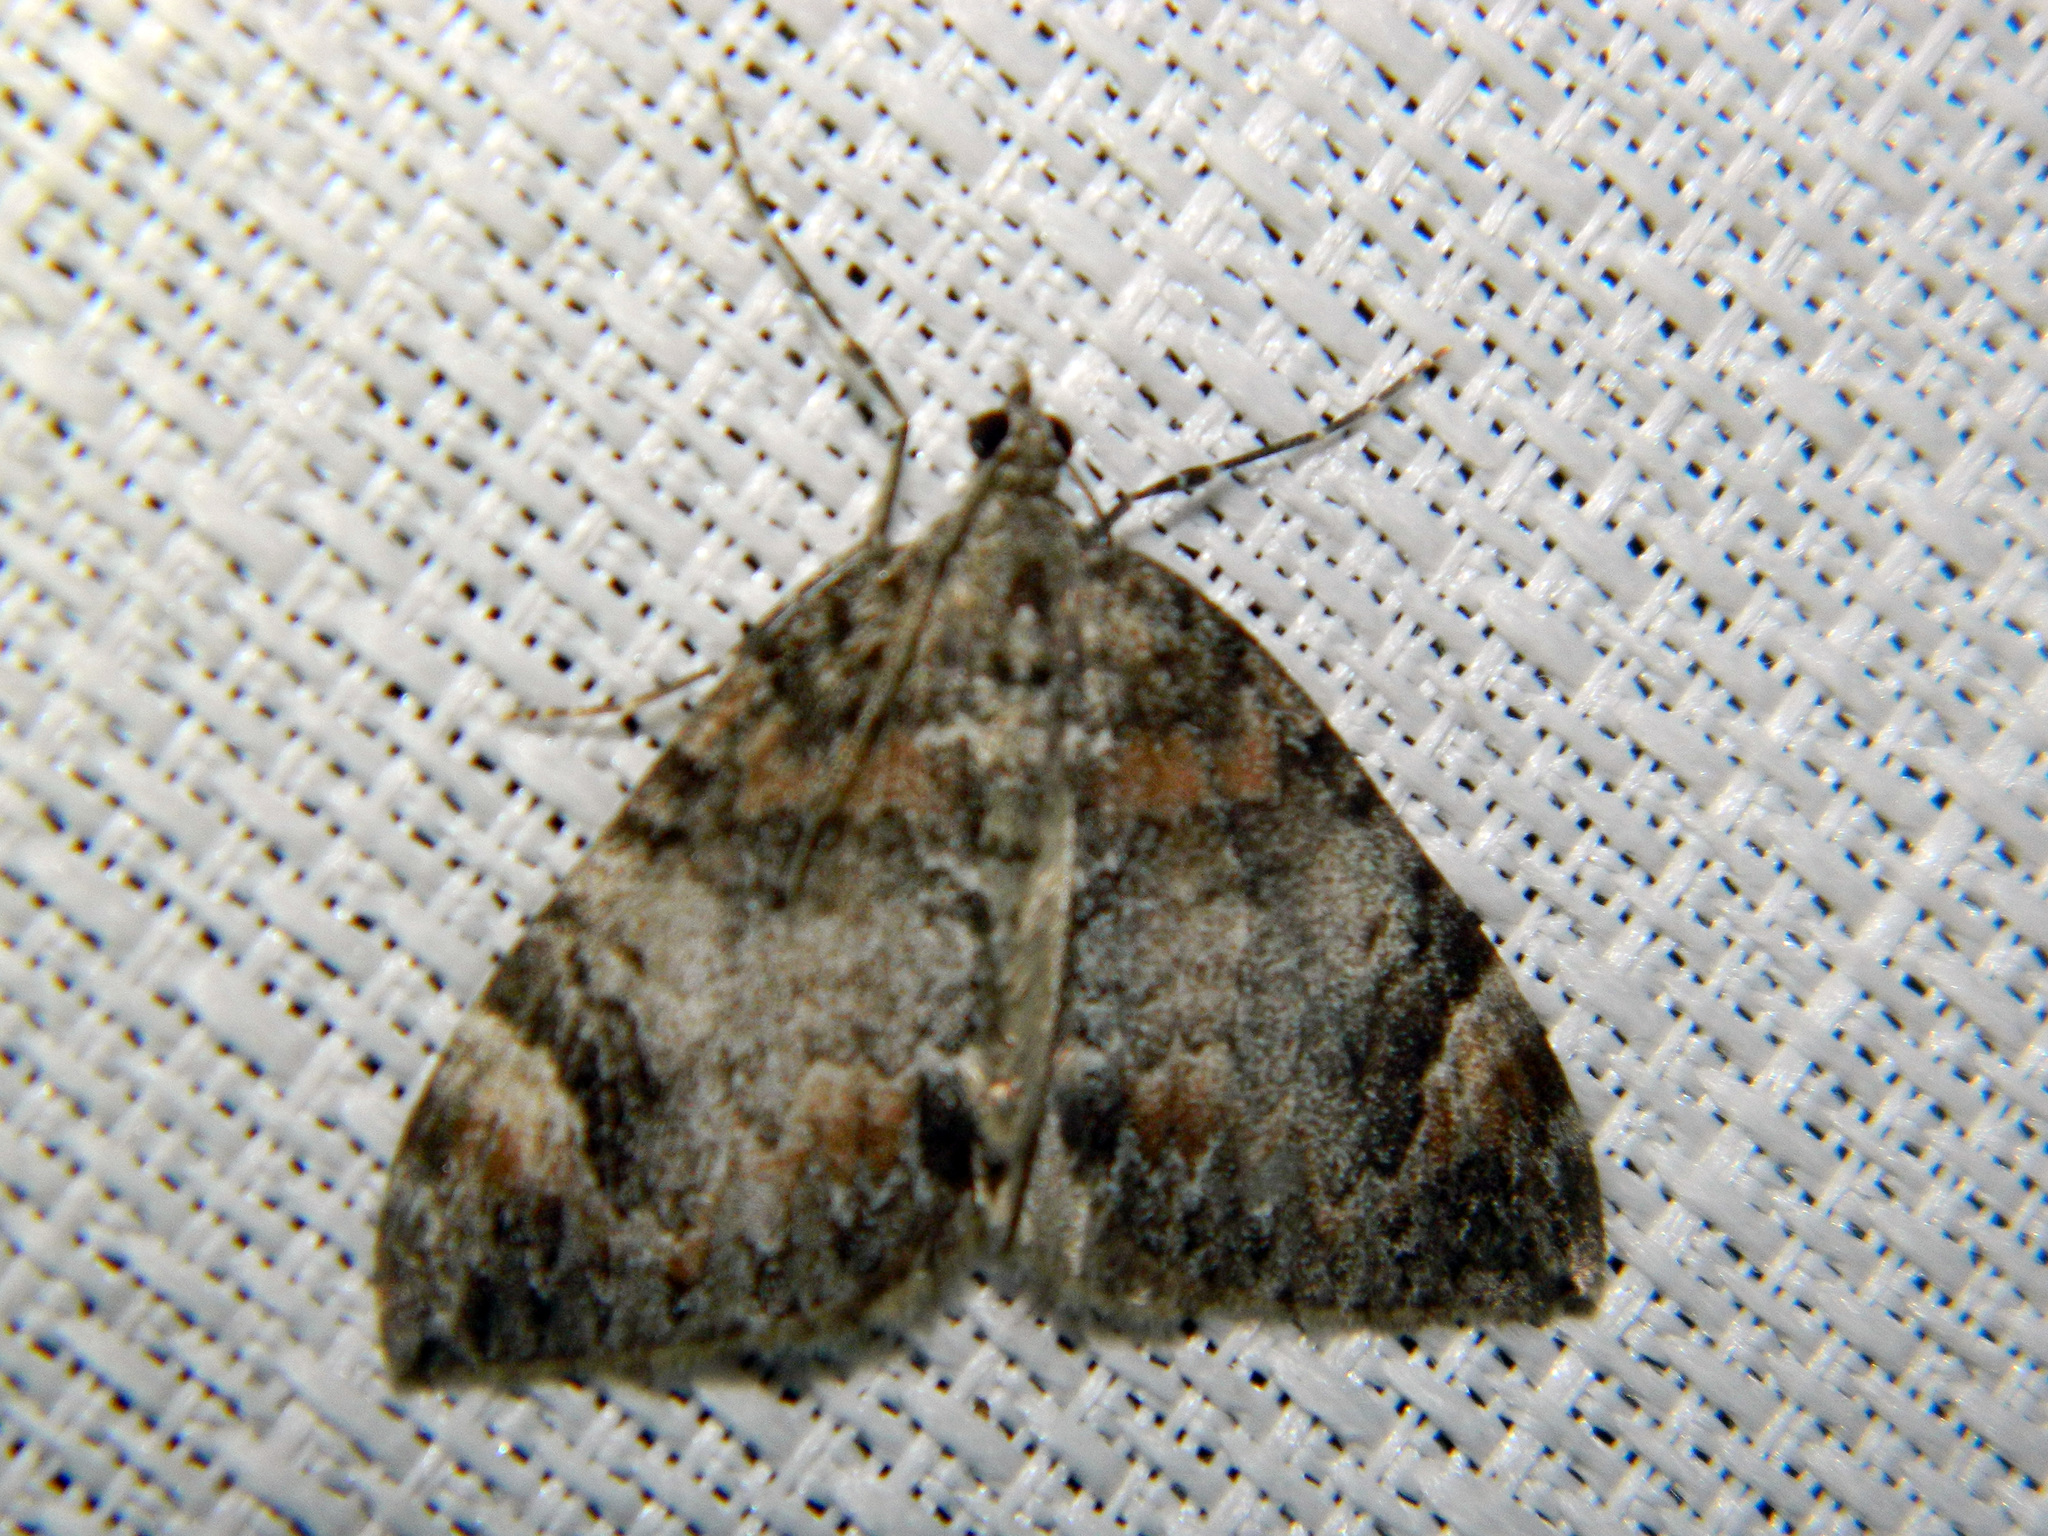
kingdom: Animalia
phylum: Arthropoda
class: Insecta
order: Lepidoptera
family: Geometridae
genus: Dysstroma
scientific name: Dysstroma citrata
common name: Dark marbled carpet
